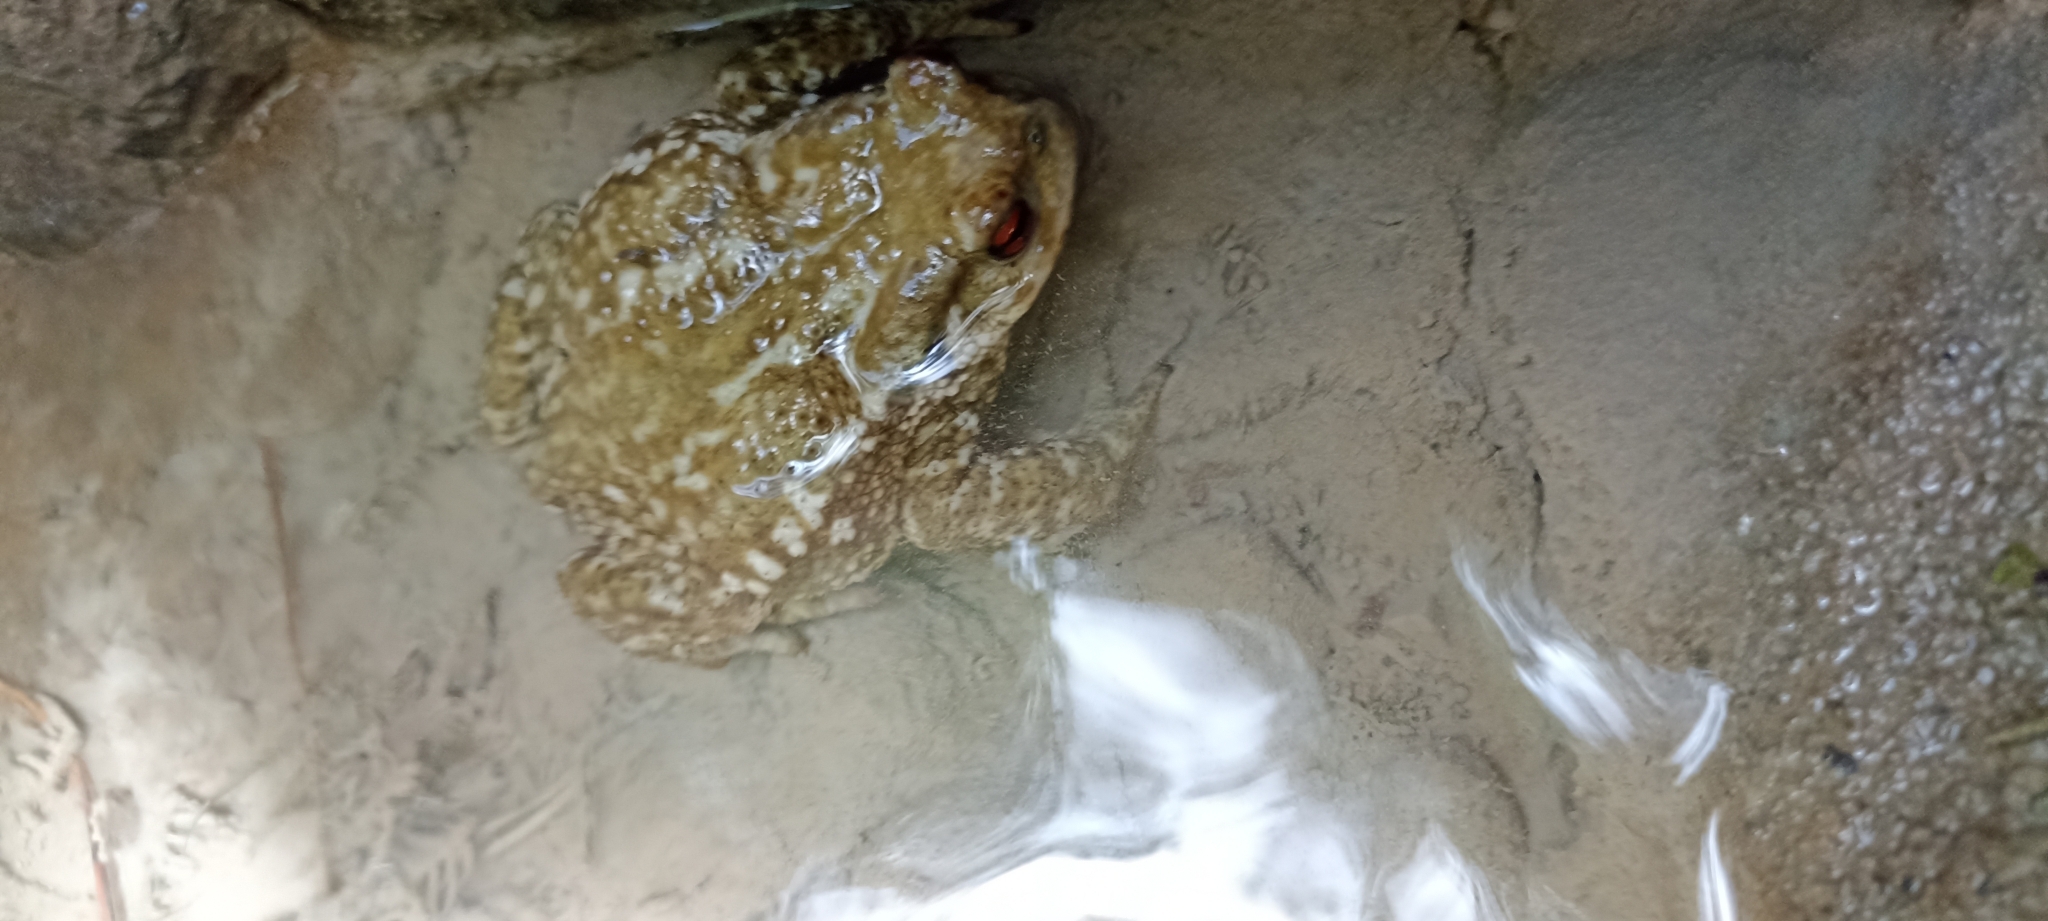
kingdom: Animalia
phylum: Chordata
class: Amphibia
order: Anura
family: Bufonidae
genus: Bufo
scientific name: Bufo spinosus
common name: Western common toad
